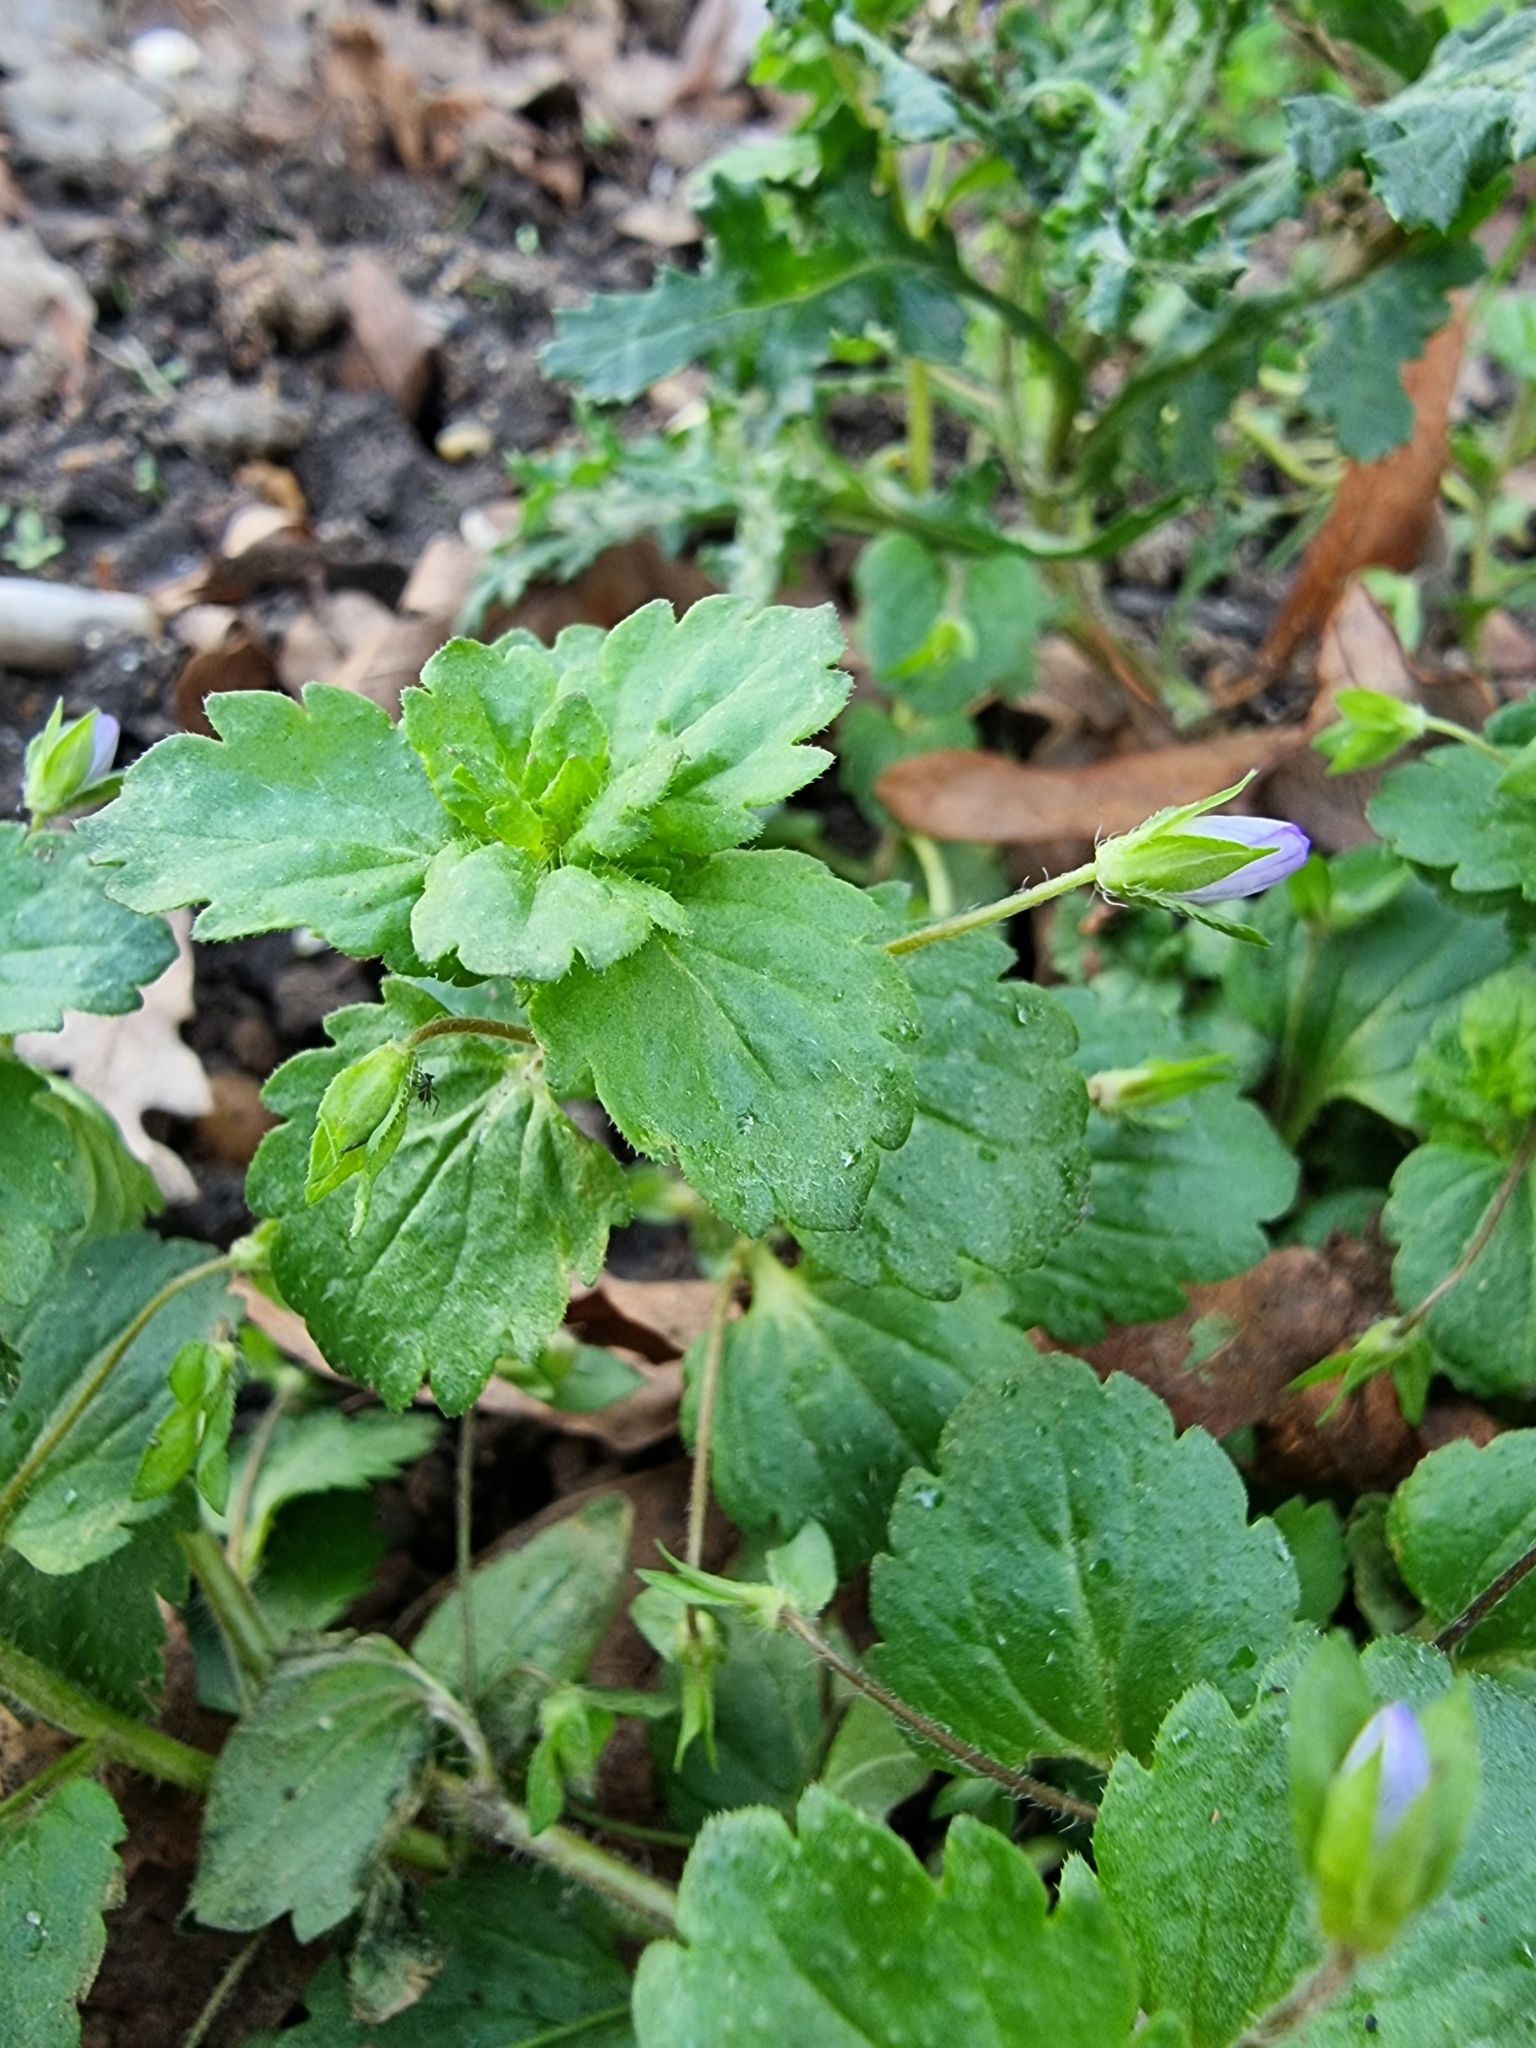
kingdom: Plantae
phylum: Tracheophyta
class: Magnoliopsida
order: Lamiales
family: Plantaginaceae
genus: Veronica
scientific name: Veronica persica
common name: Common field-speedwell
